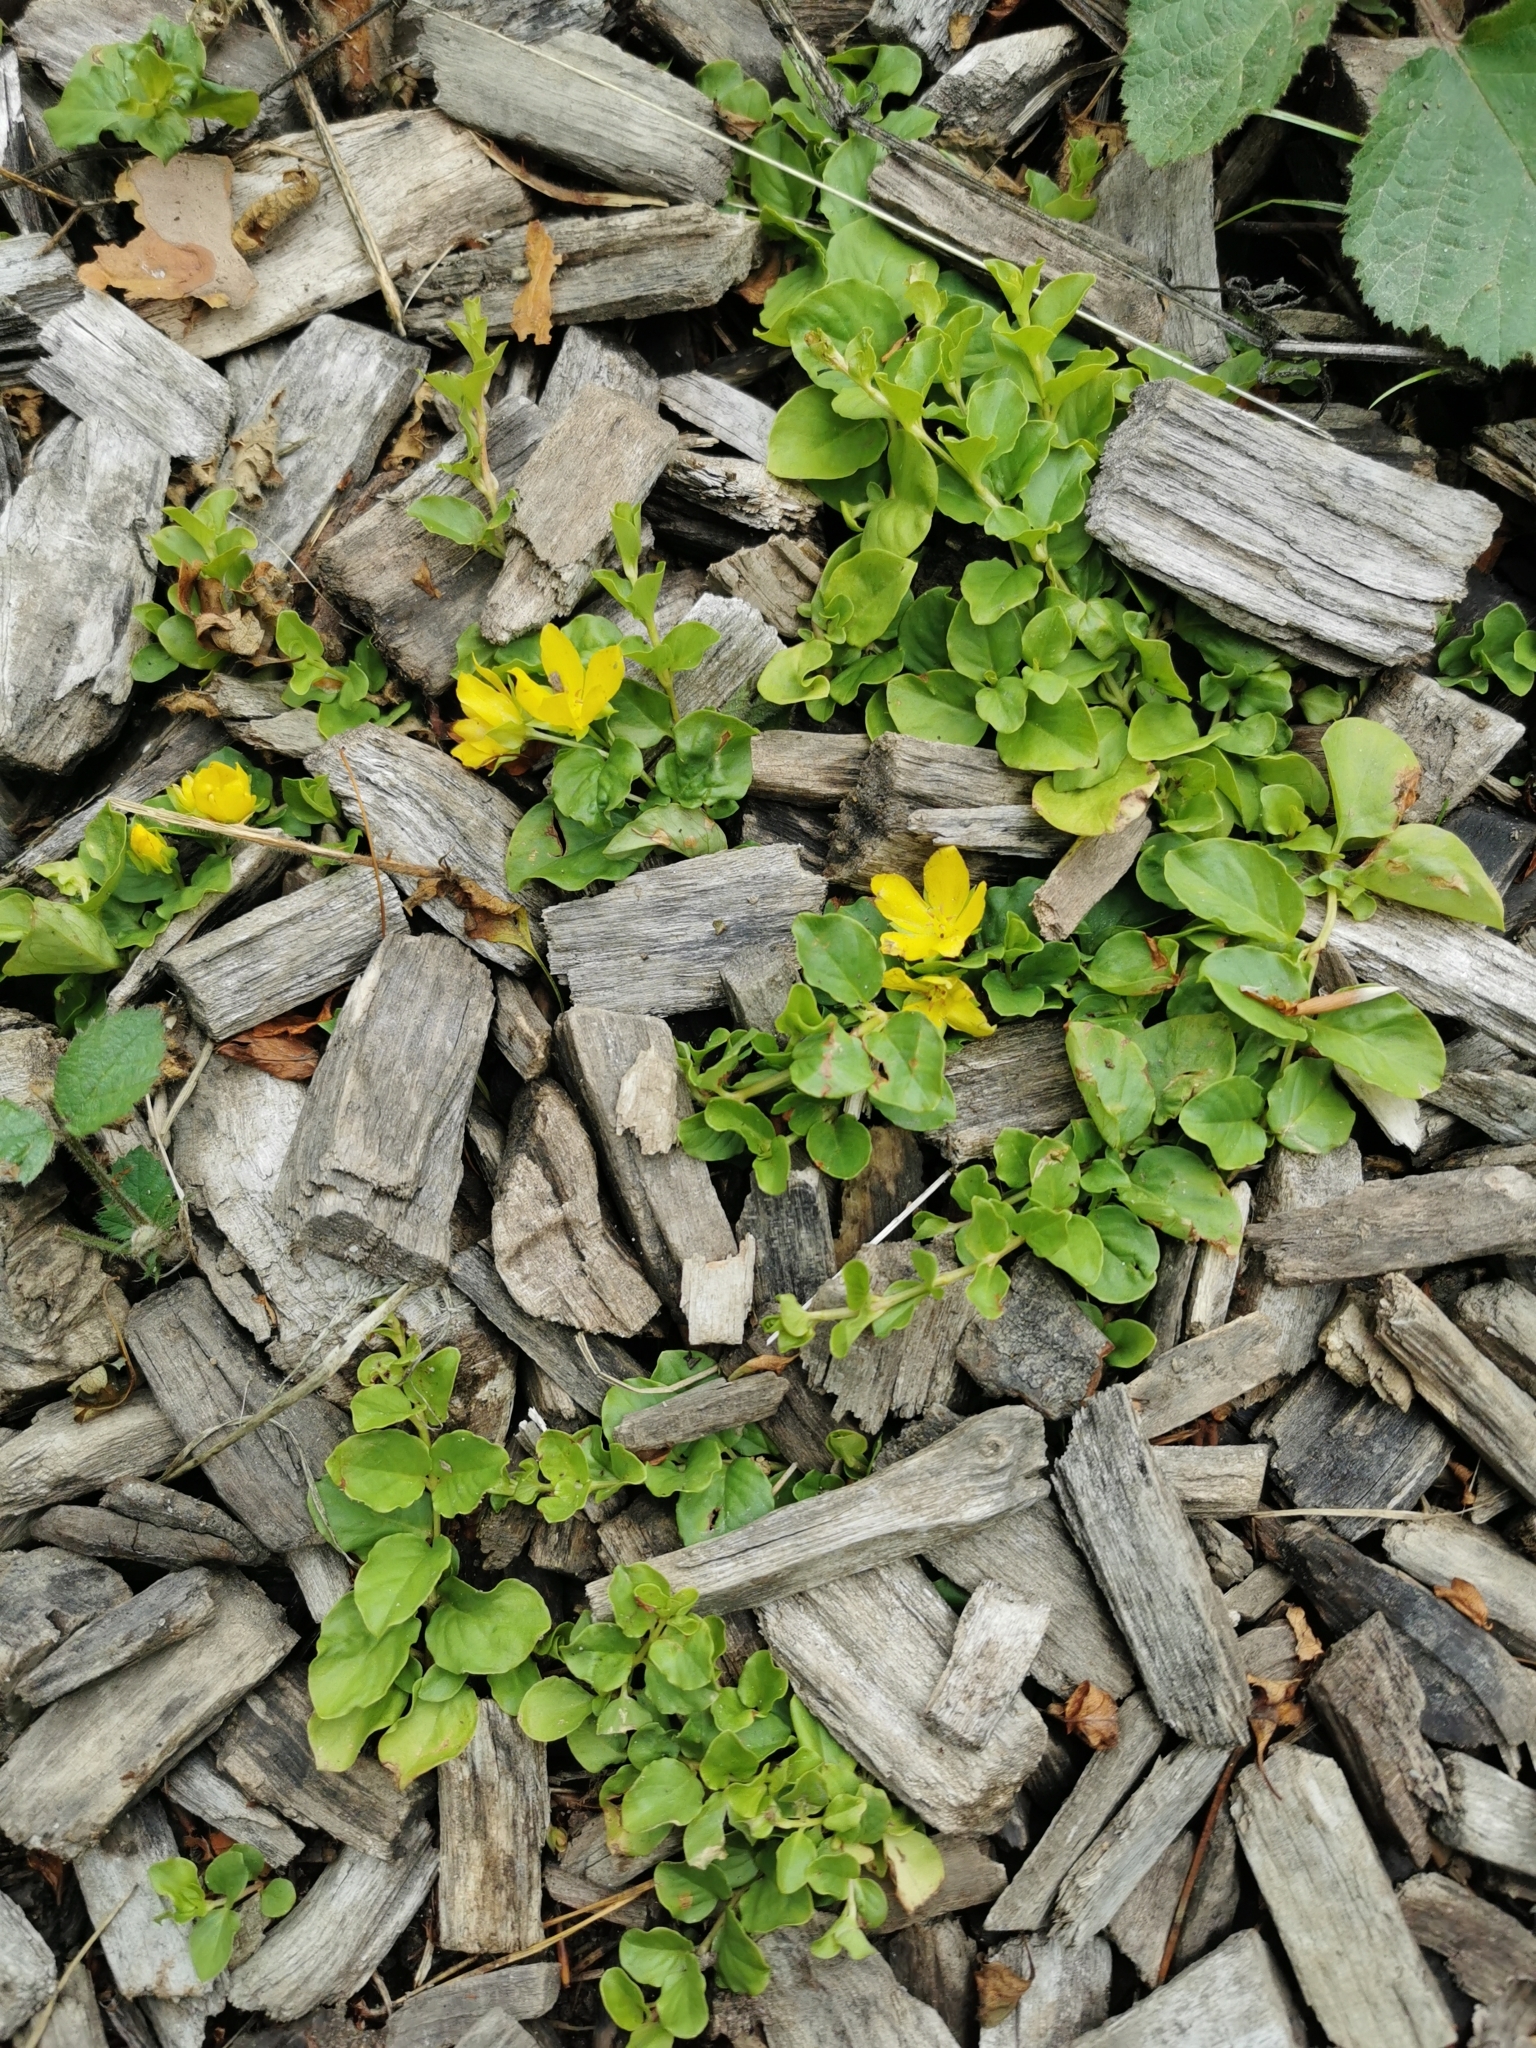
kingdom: Plantae
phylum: Tracheophyta
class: Magnoliopsida
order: Ericales
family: Primulaceae
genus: Lysimachia
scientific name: Lysimachia nummularia
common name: Moneywort
